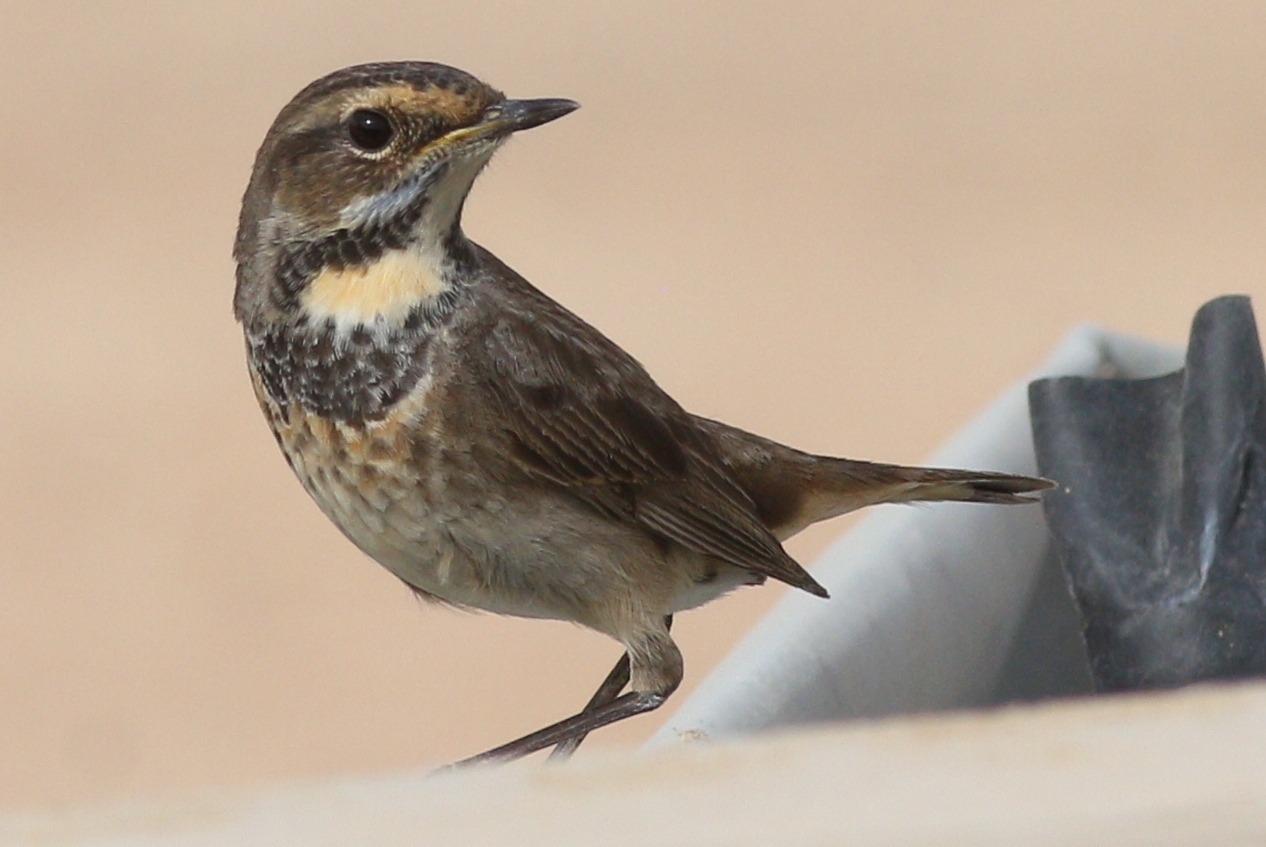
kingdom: Animalia
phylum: Chordata
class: Aves
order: Passeriformes
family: Muscicapidae
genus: Luscinia
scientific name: Luscinia svecica
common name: Bluethroat
